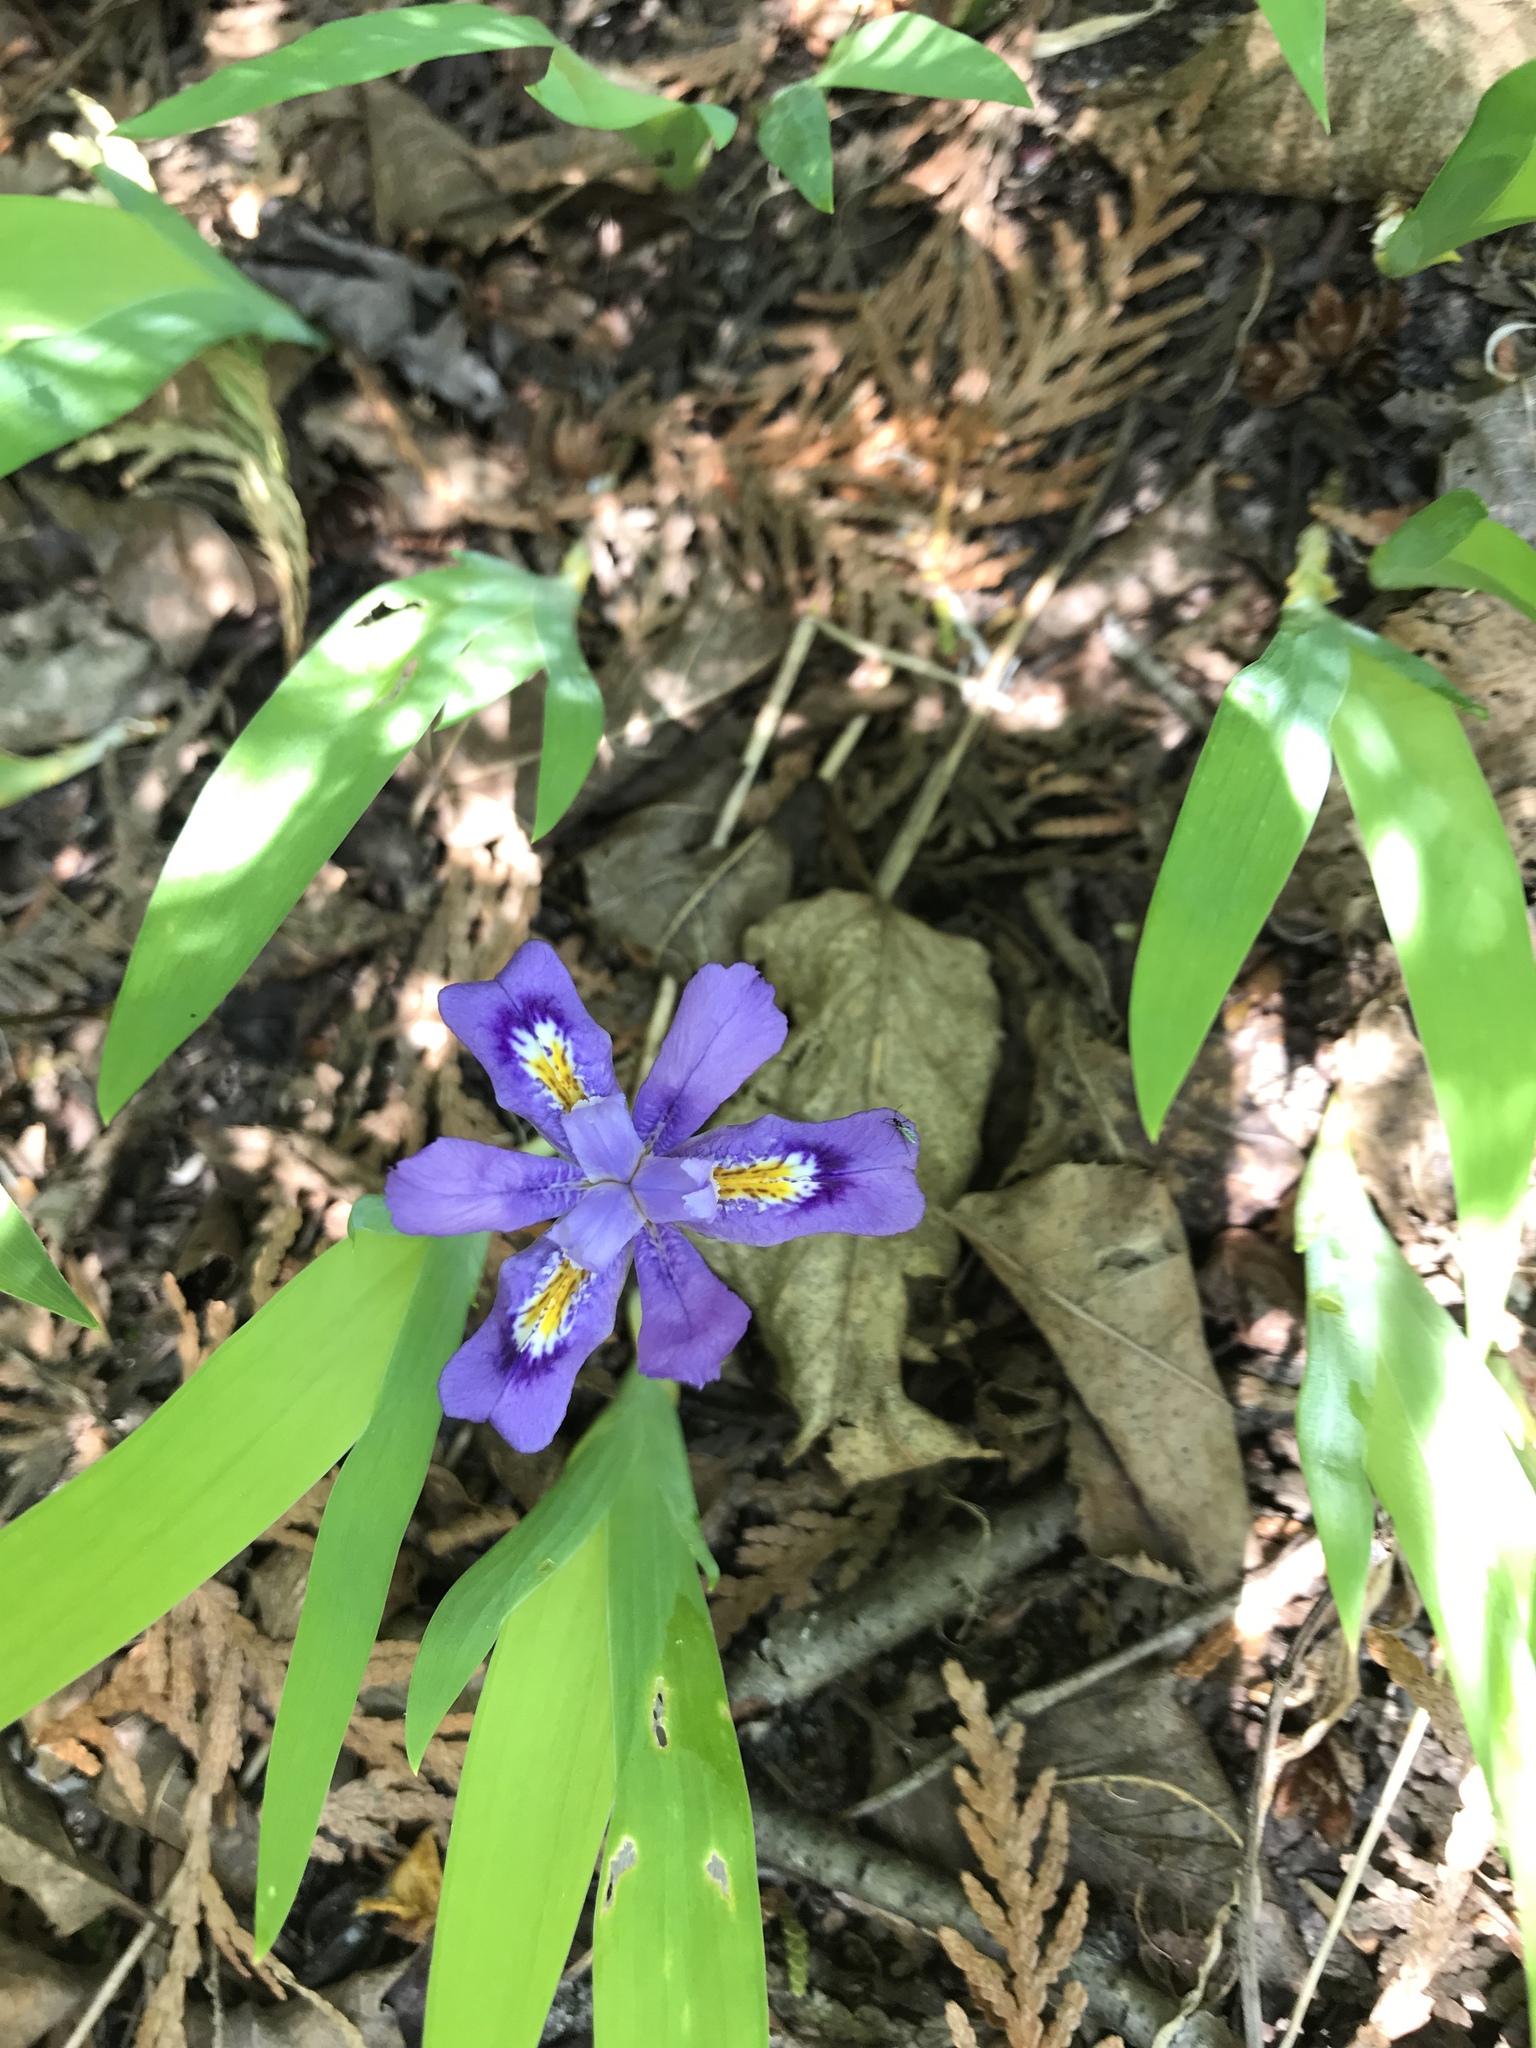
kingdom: Plantae
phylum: Tracheophyta
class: Liliopsida
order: Asparagales
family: Iridaceae
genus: Iris
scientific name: Iris lacustris
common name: Dwarf lake iris
